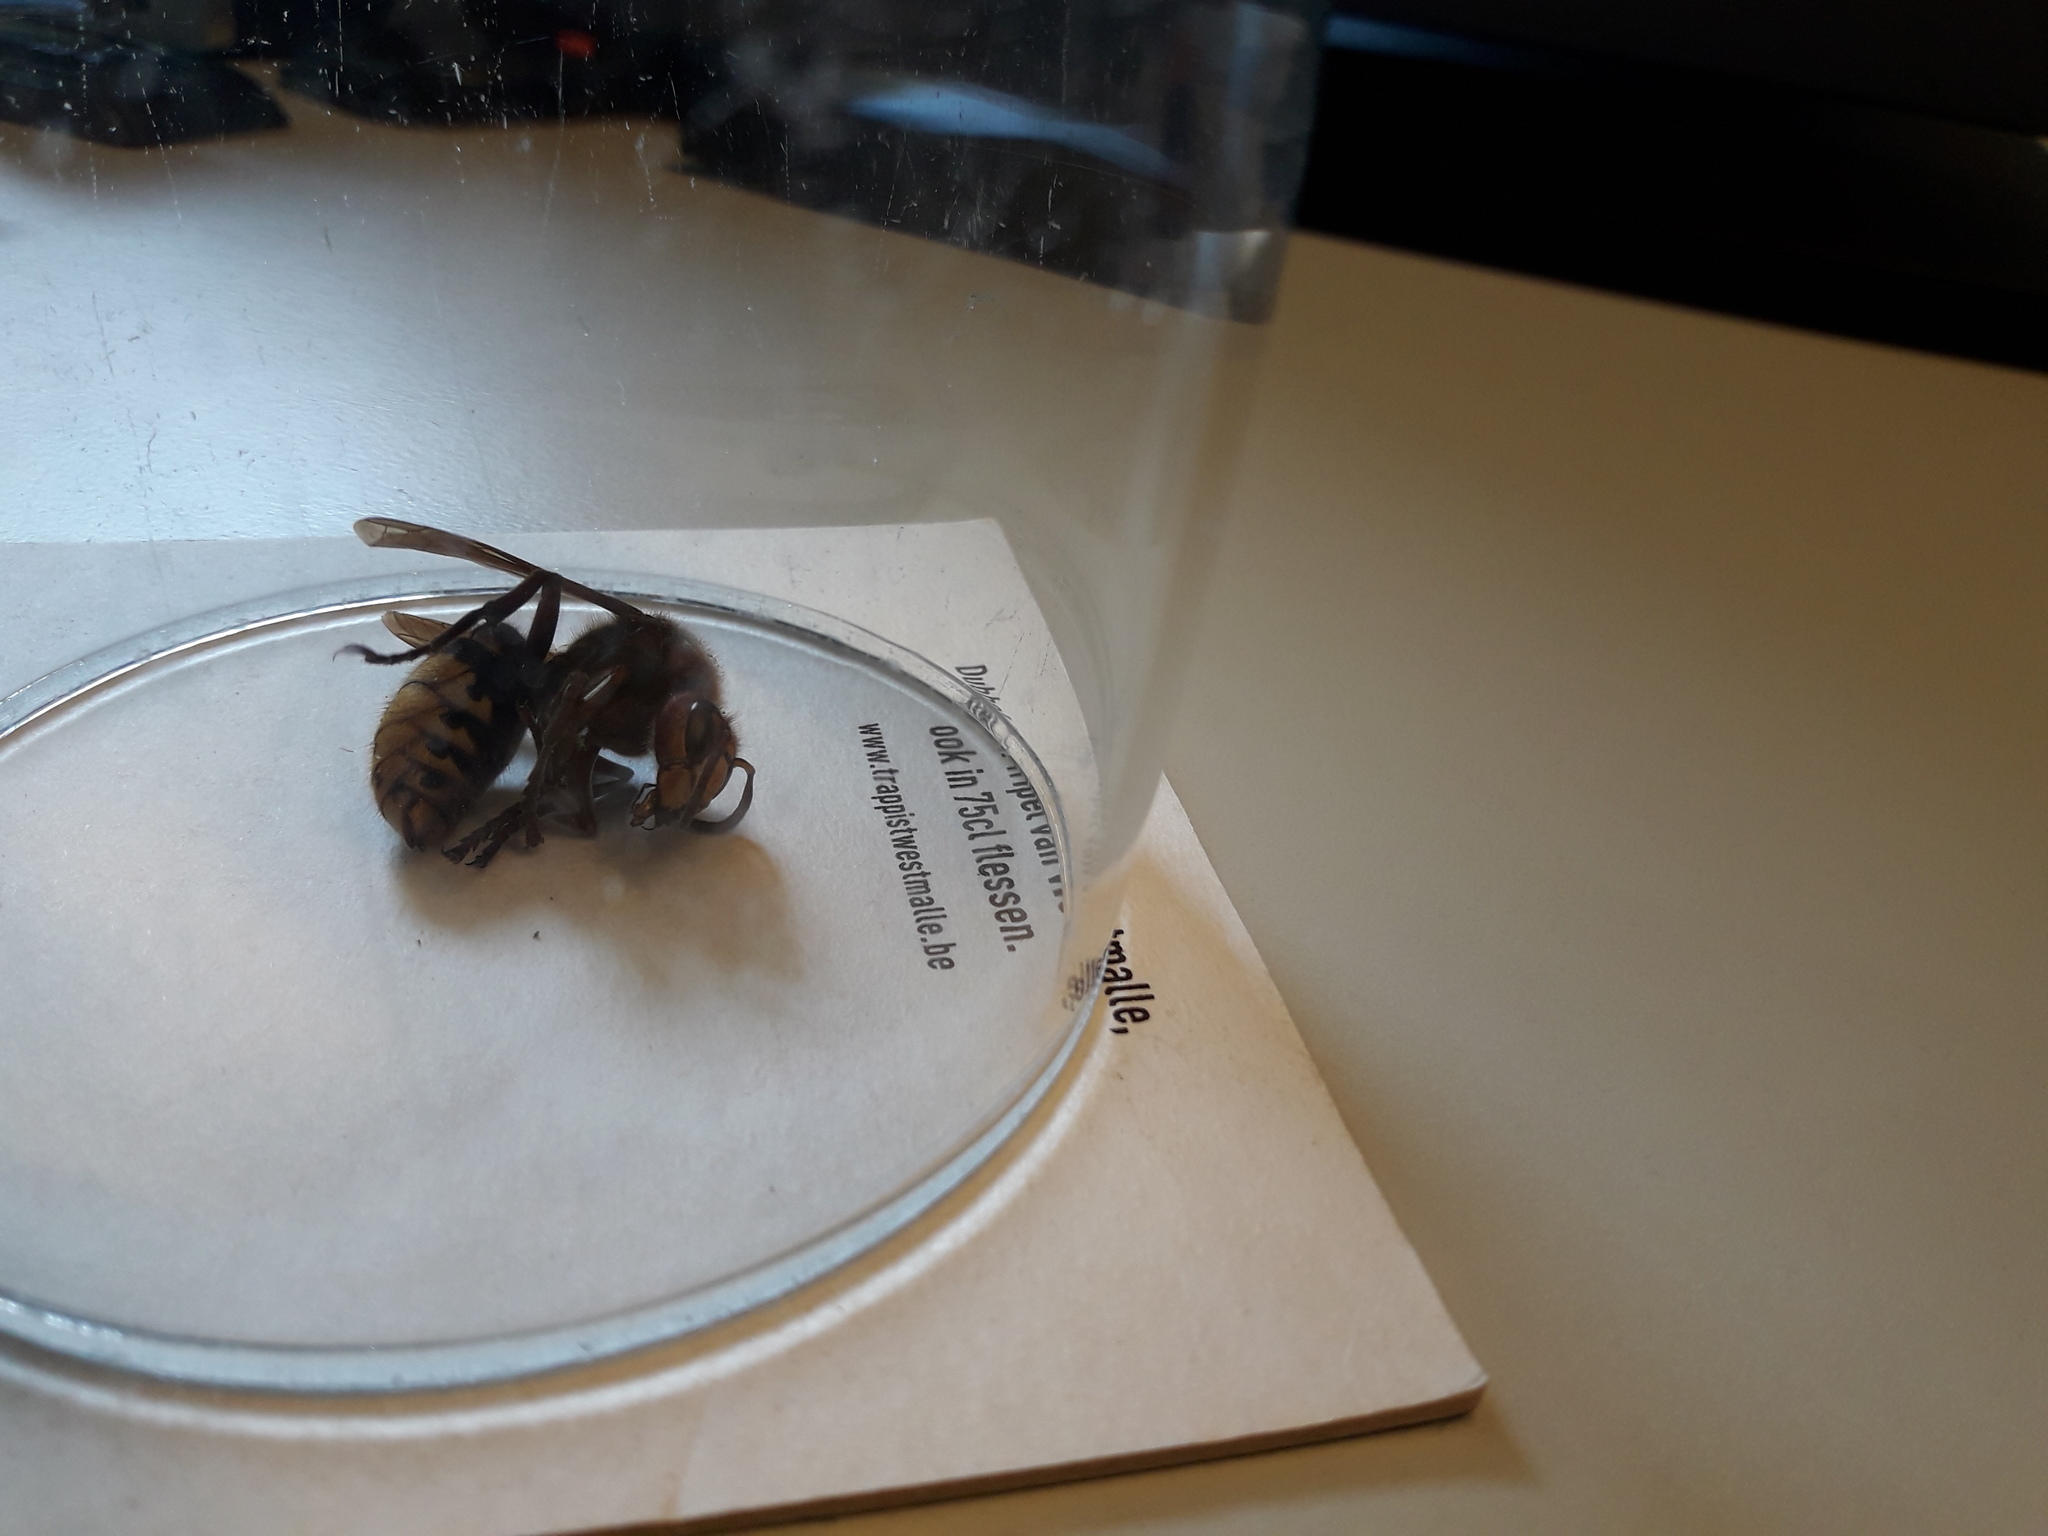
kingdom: Animalia
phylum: Arthropoda
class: Insecta
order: Hymenoptera
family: Vespidae
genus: Vespa
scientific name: Vespa crabro
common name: Hornet
